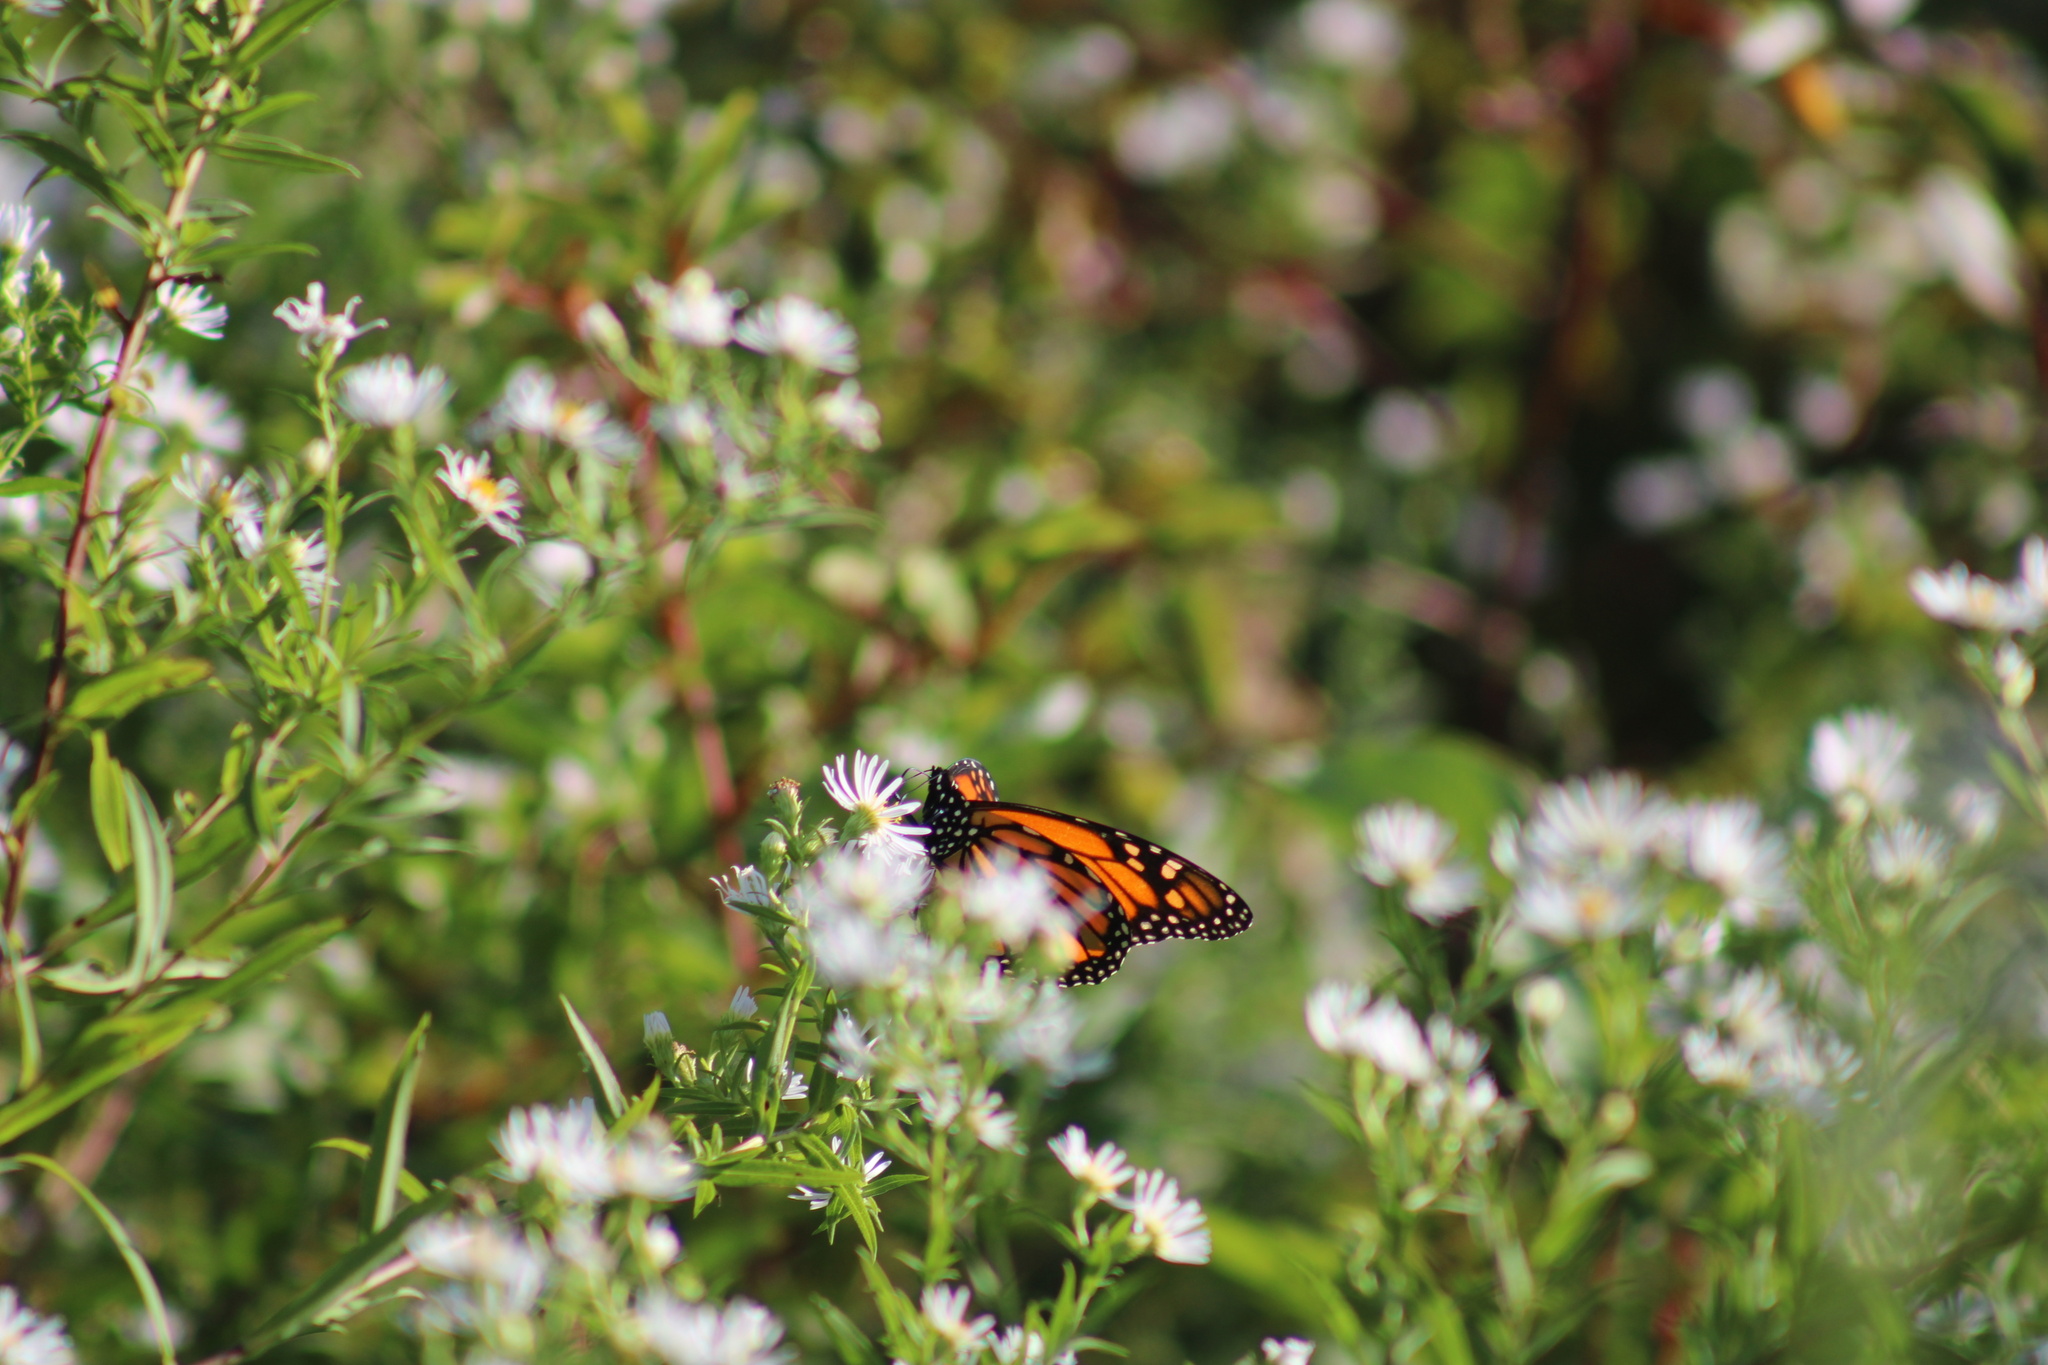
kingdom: Animalia
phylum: Arthropoda
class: Insecta
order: Lepidoptera
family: Nymphalidae
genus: Danaus
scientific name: Danaus plexippus
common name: Monarch
